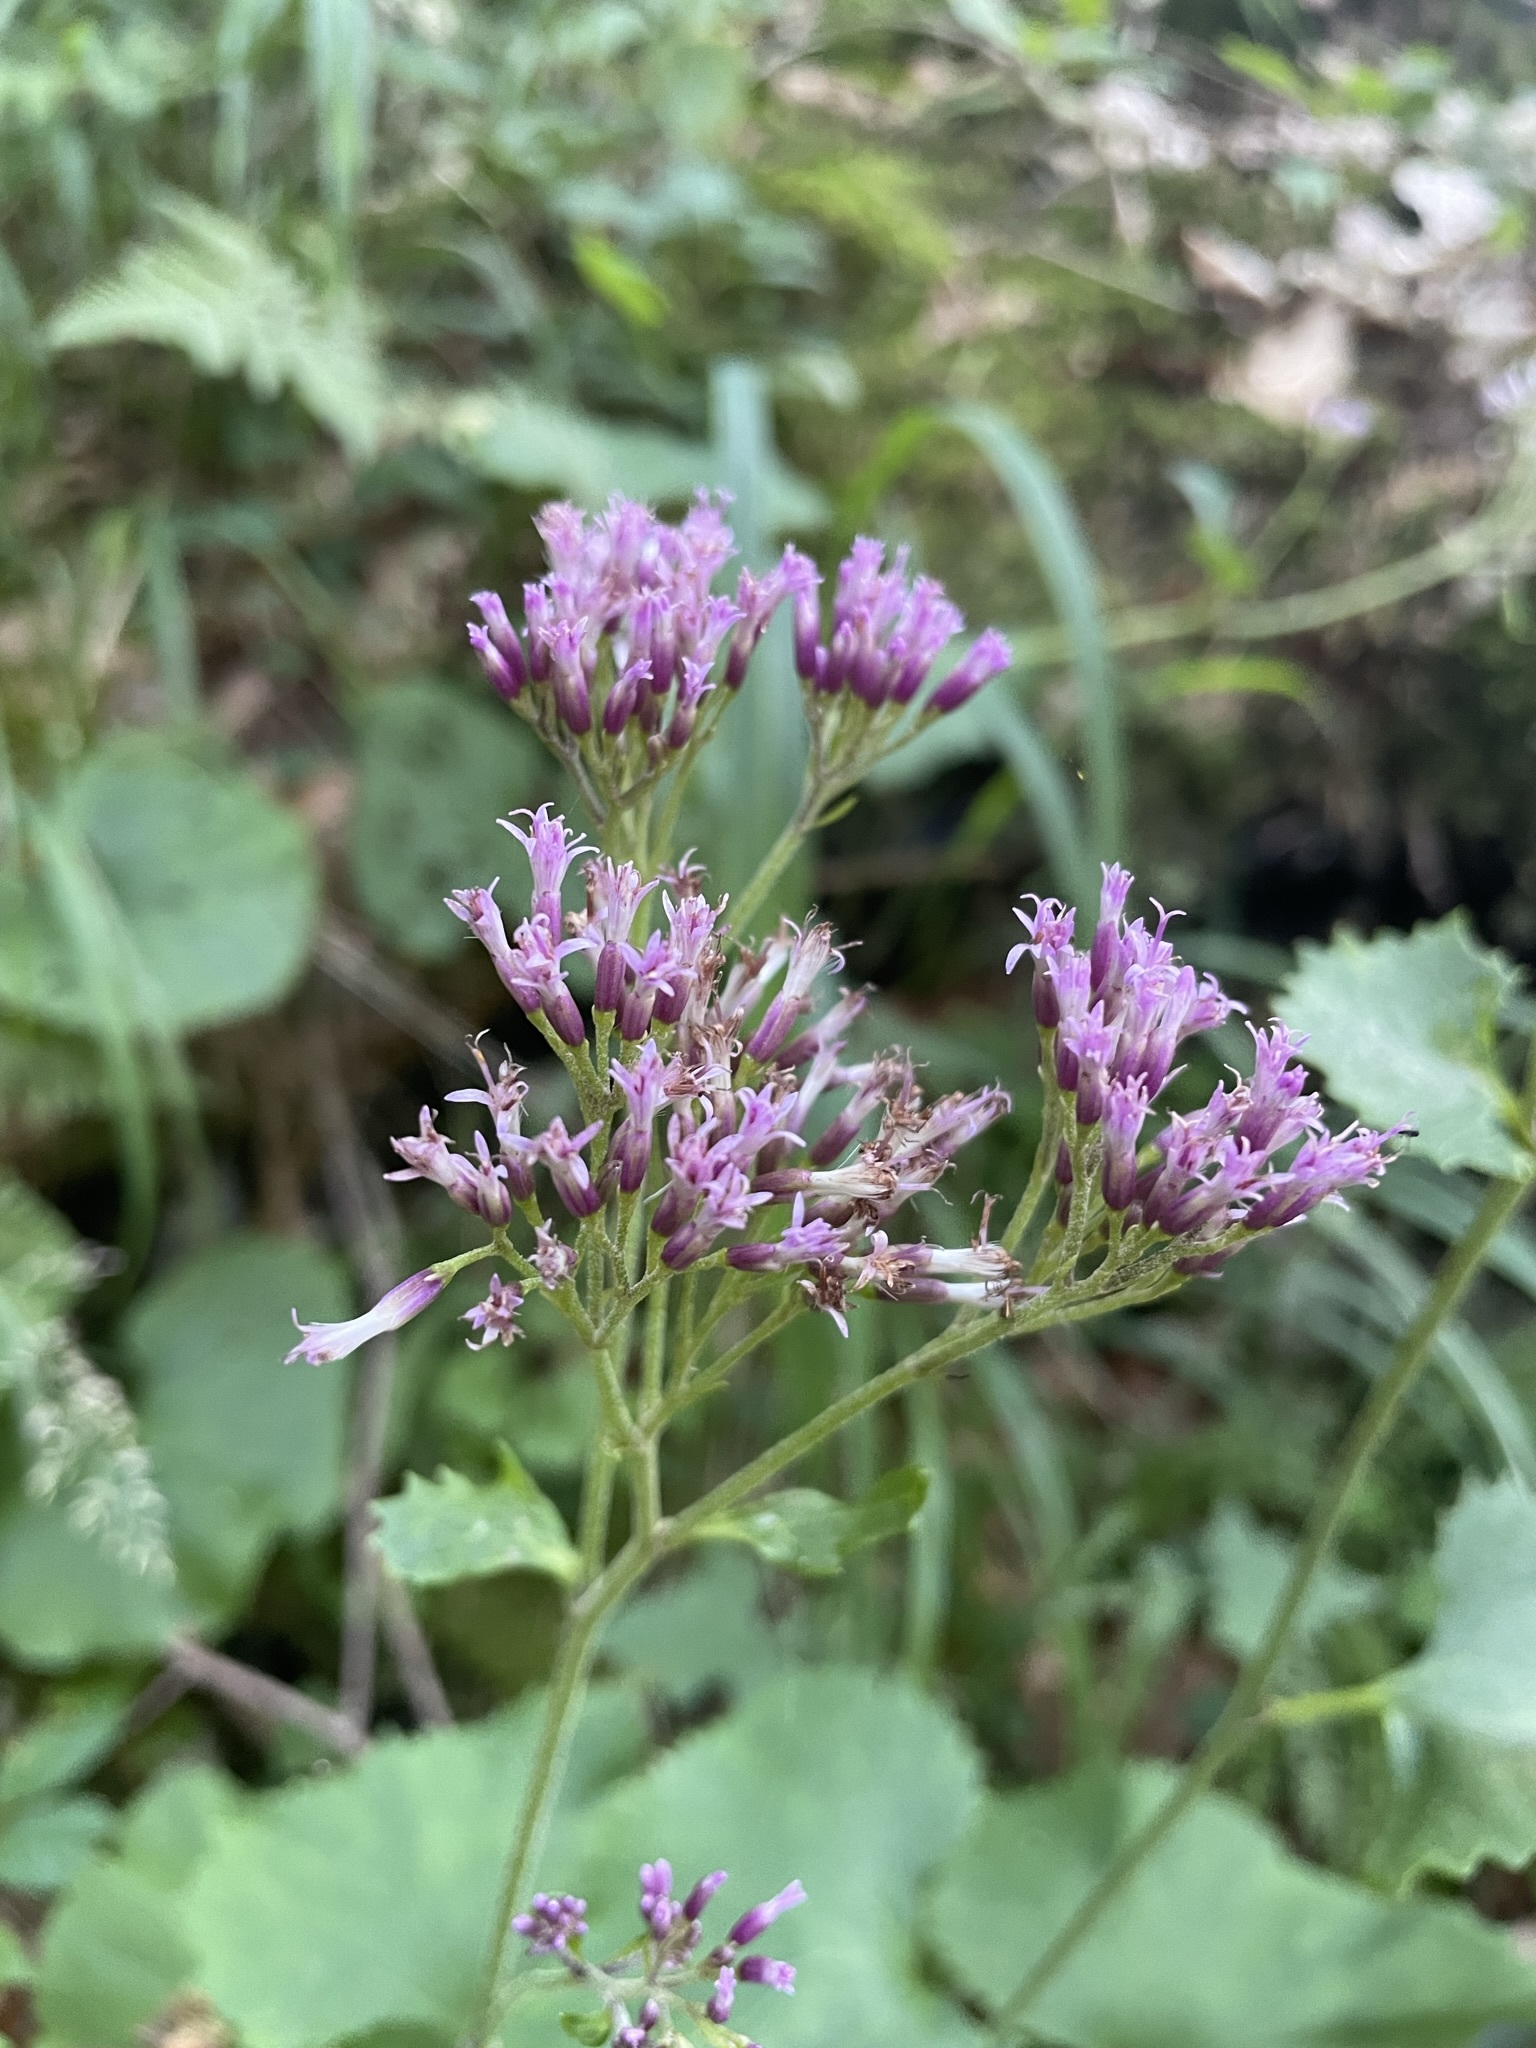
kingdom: Plantae
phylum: Tracheophyta
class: Magnoliopsida
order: Asterales
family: Asteraceae
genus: Adenostyles
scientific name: Adenostyles alpina
